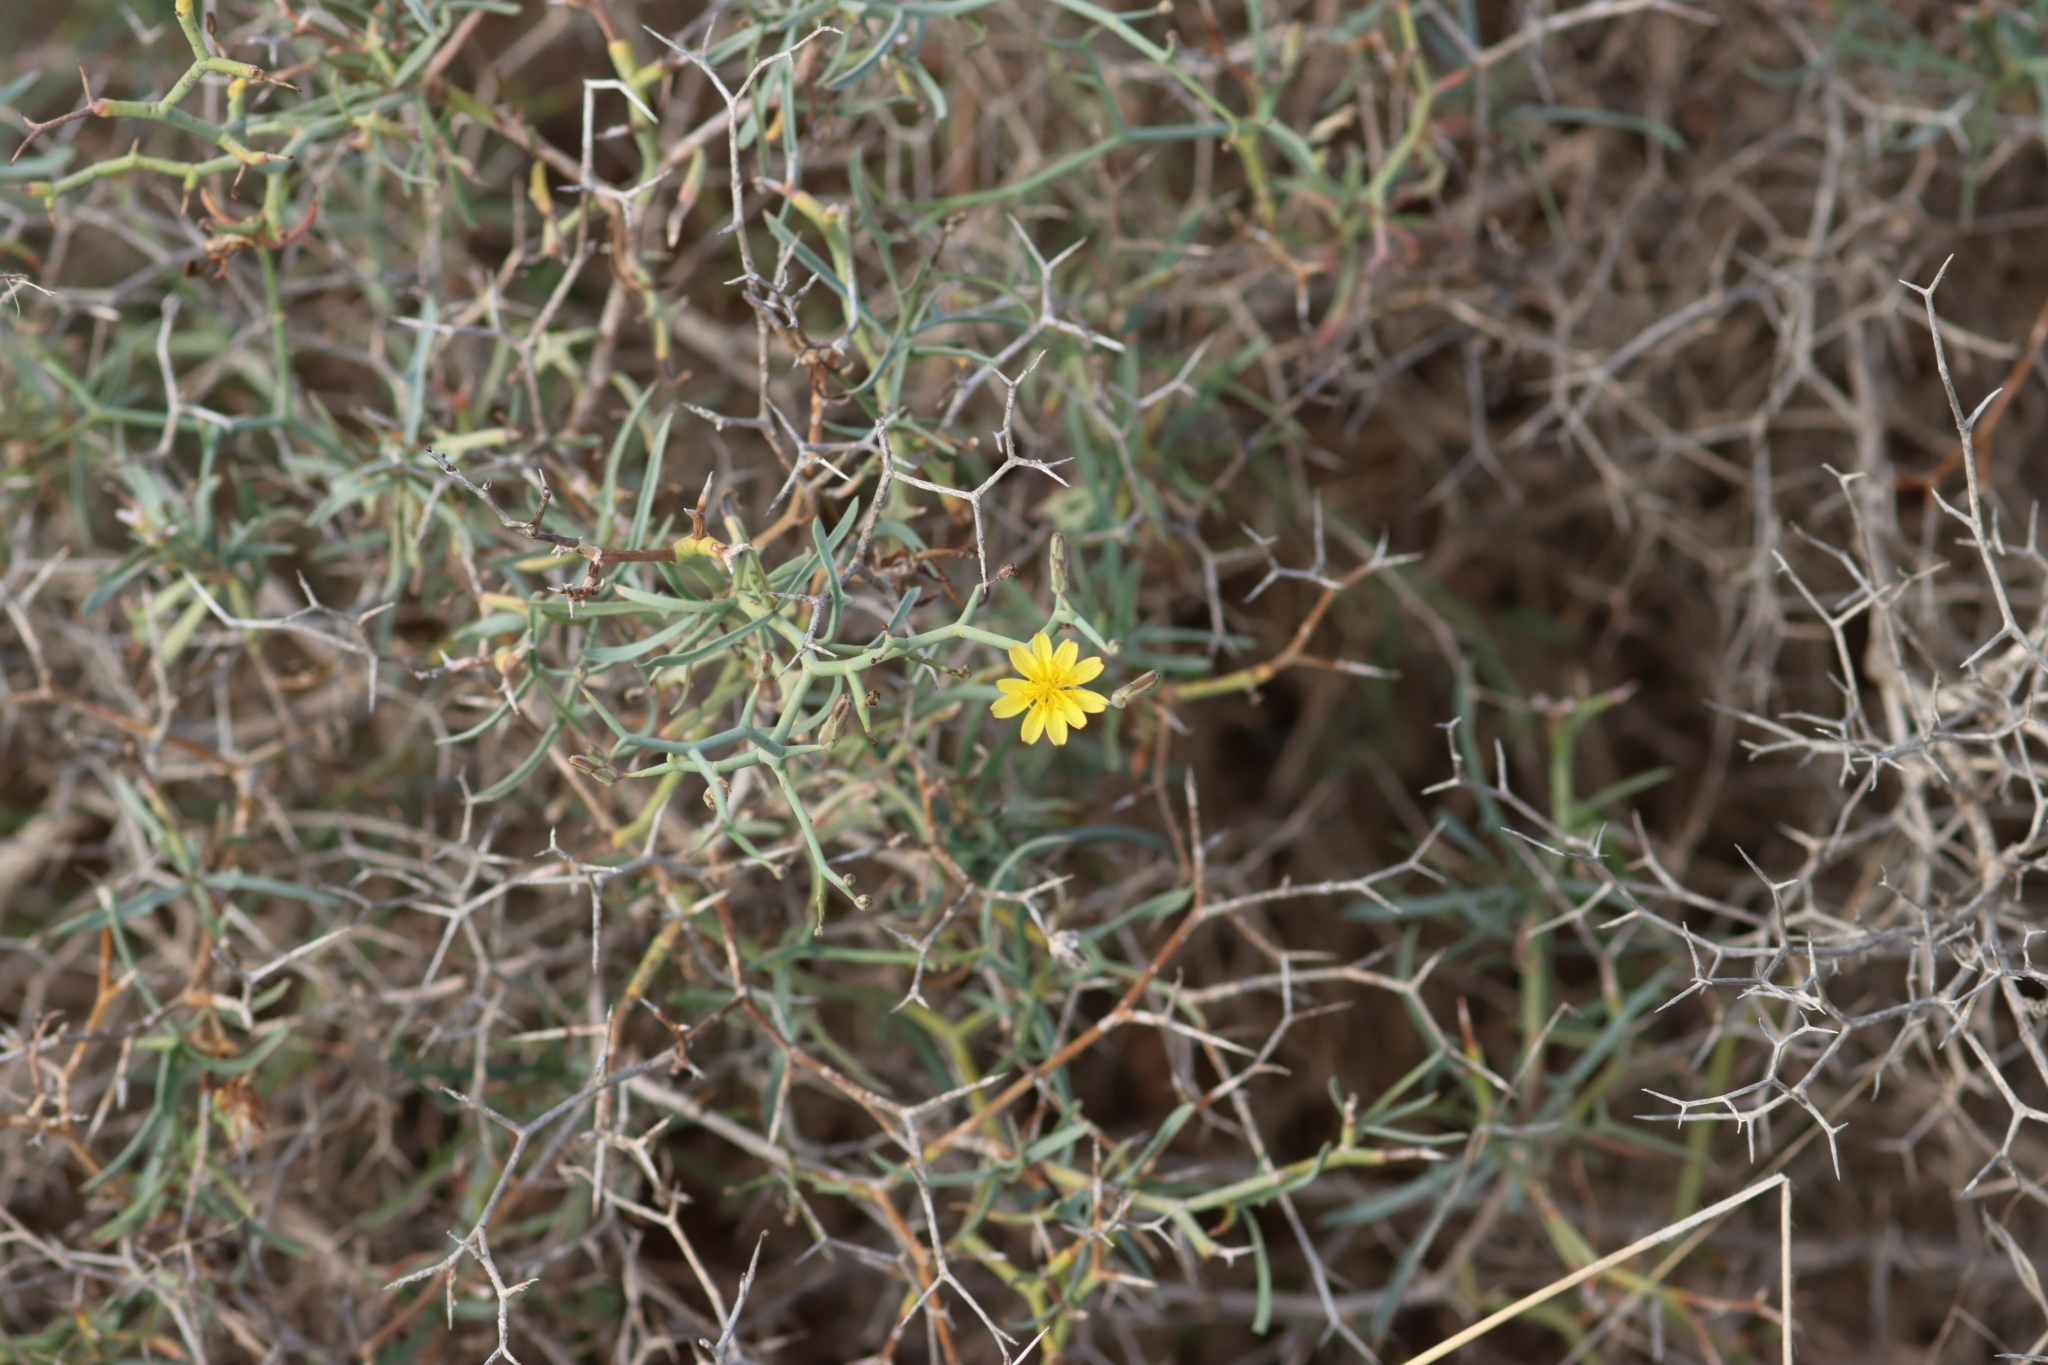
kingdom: Plantae
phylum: Tracheophyta
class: Magnoliopsida
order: Asterales
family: Asteraceae
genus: Launaea
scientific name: Launaea arborescens
